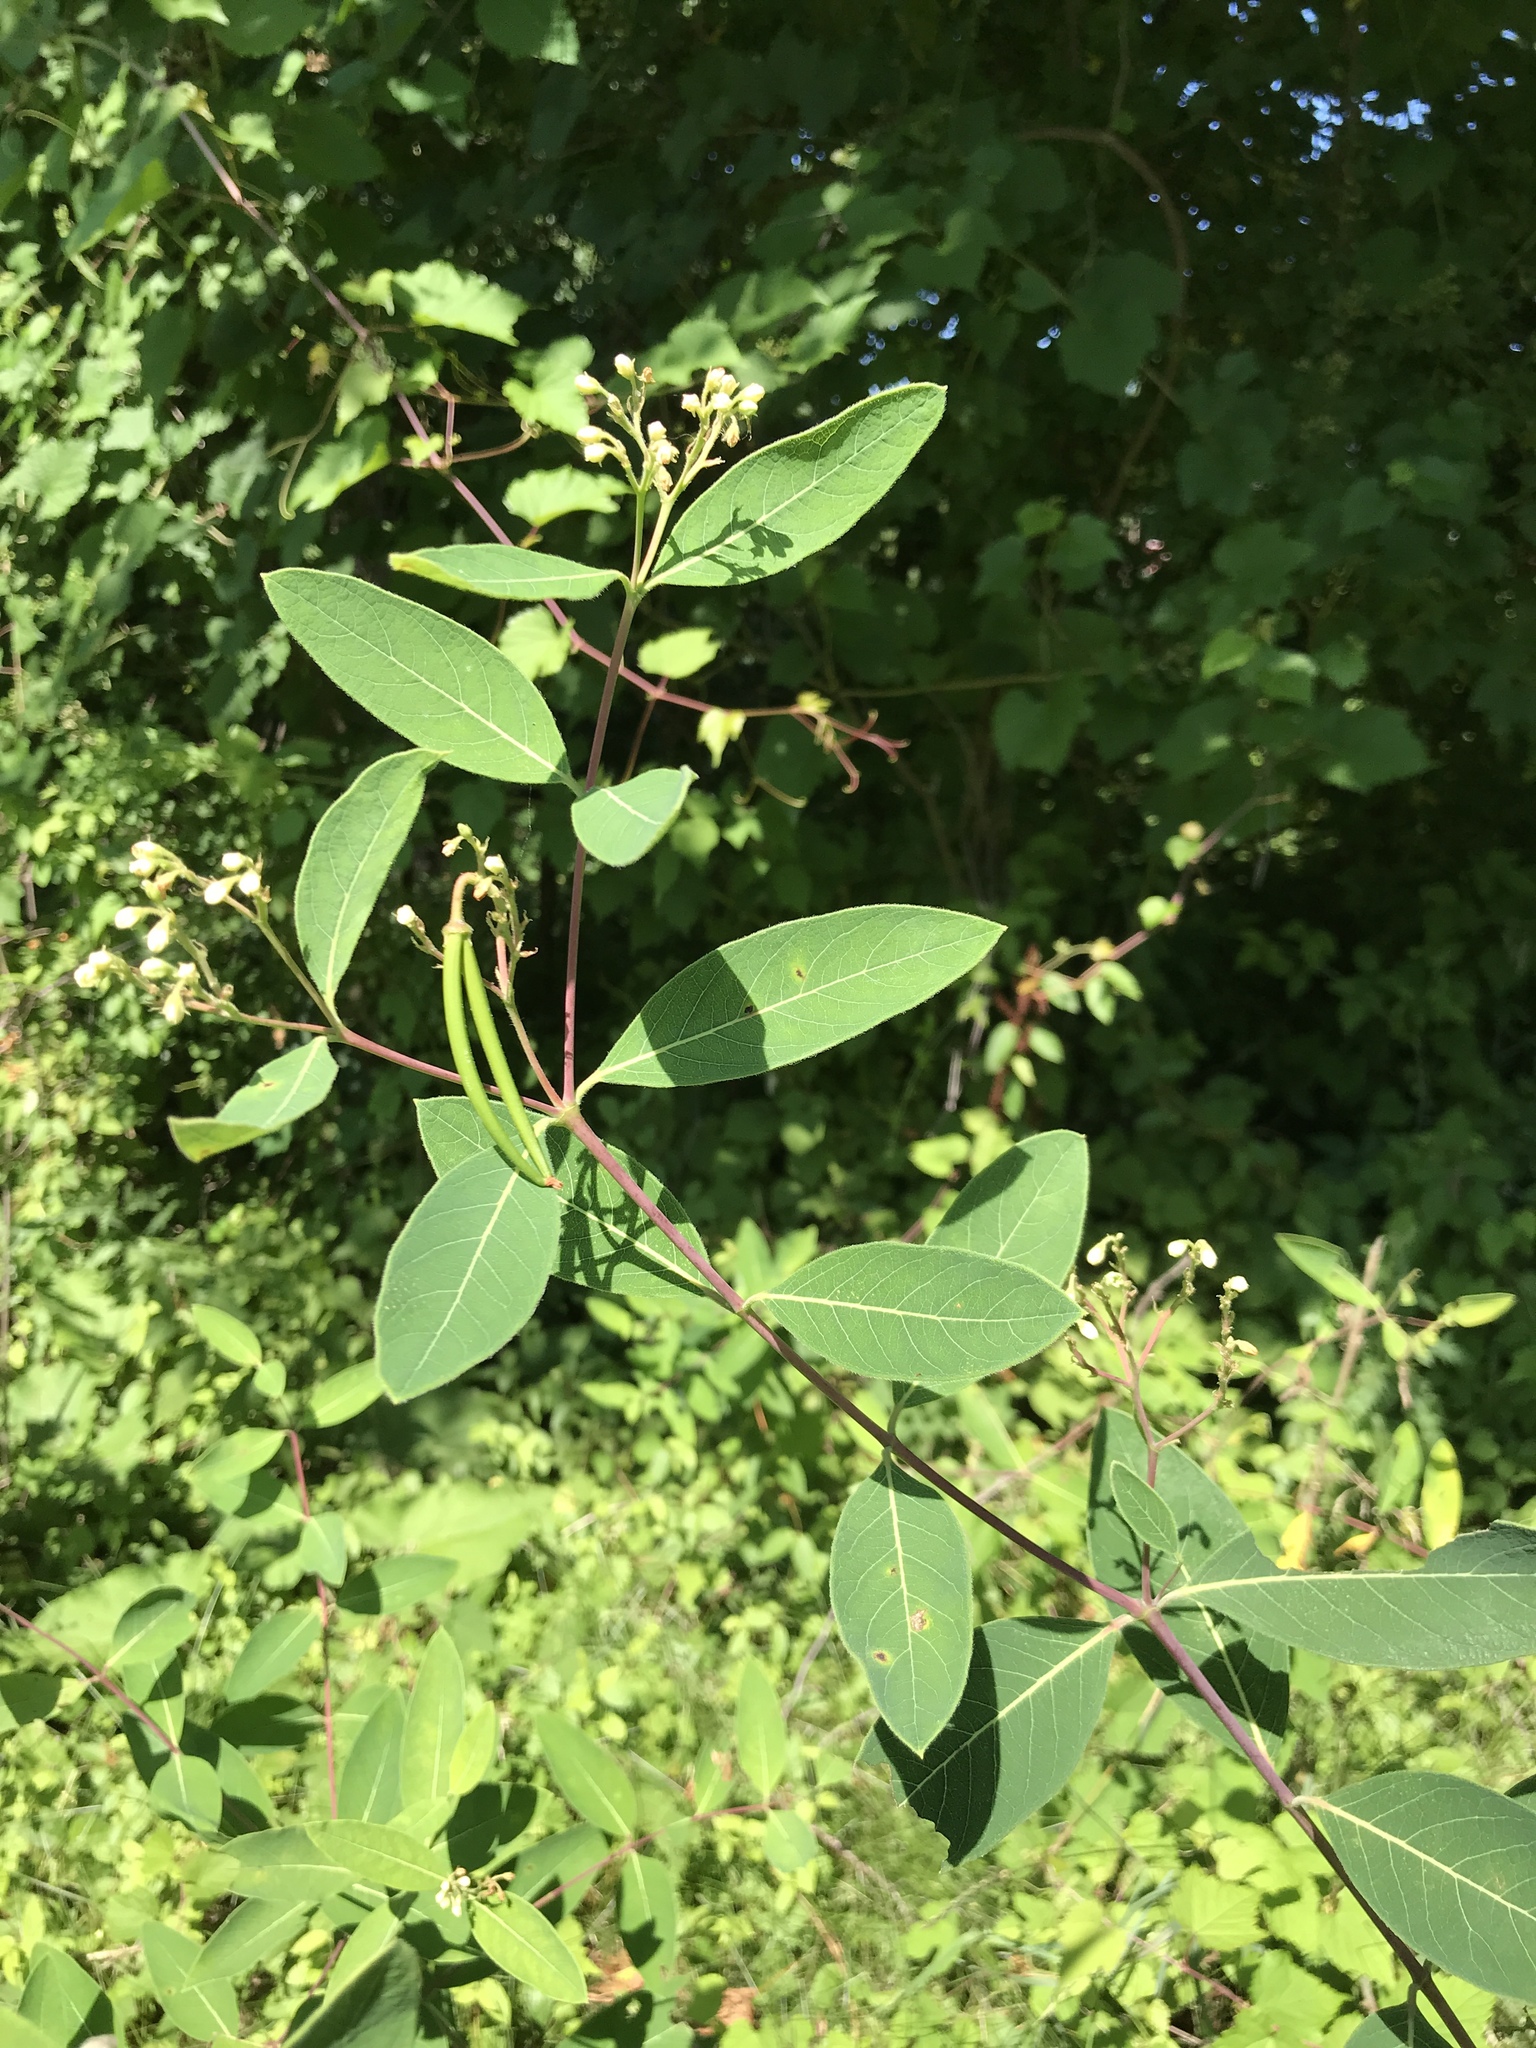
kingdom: Plantae
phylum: Tracheophyta
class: Magnoliopsida
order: Gentianales
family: Apocynaceae
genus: Apocynum
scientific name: Apocynum cannabinum
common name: Hemp dogbane
